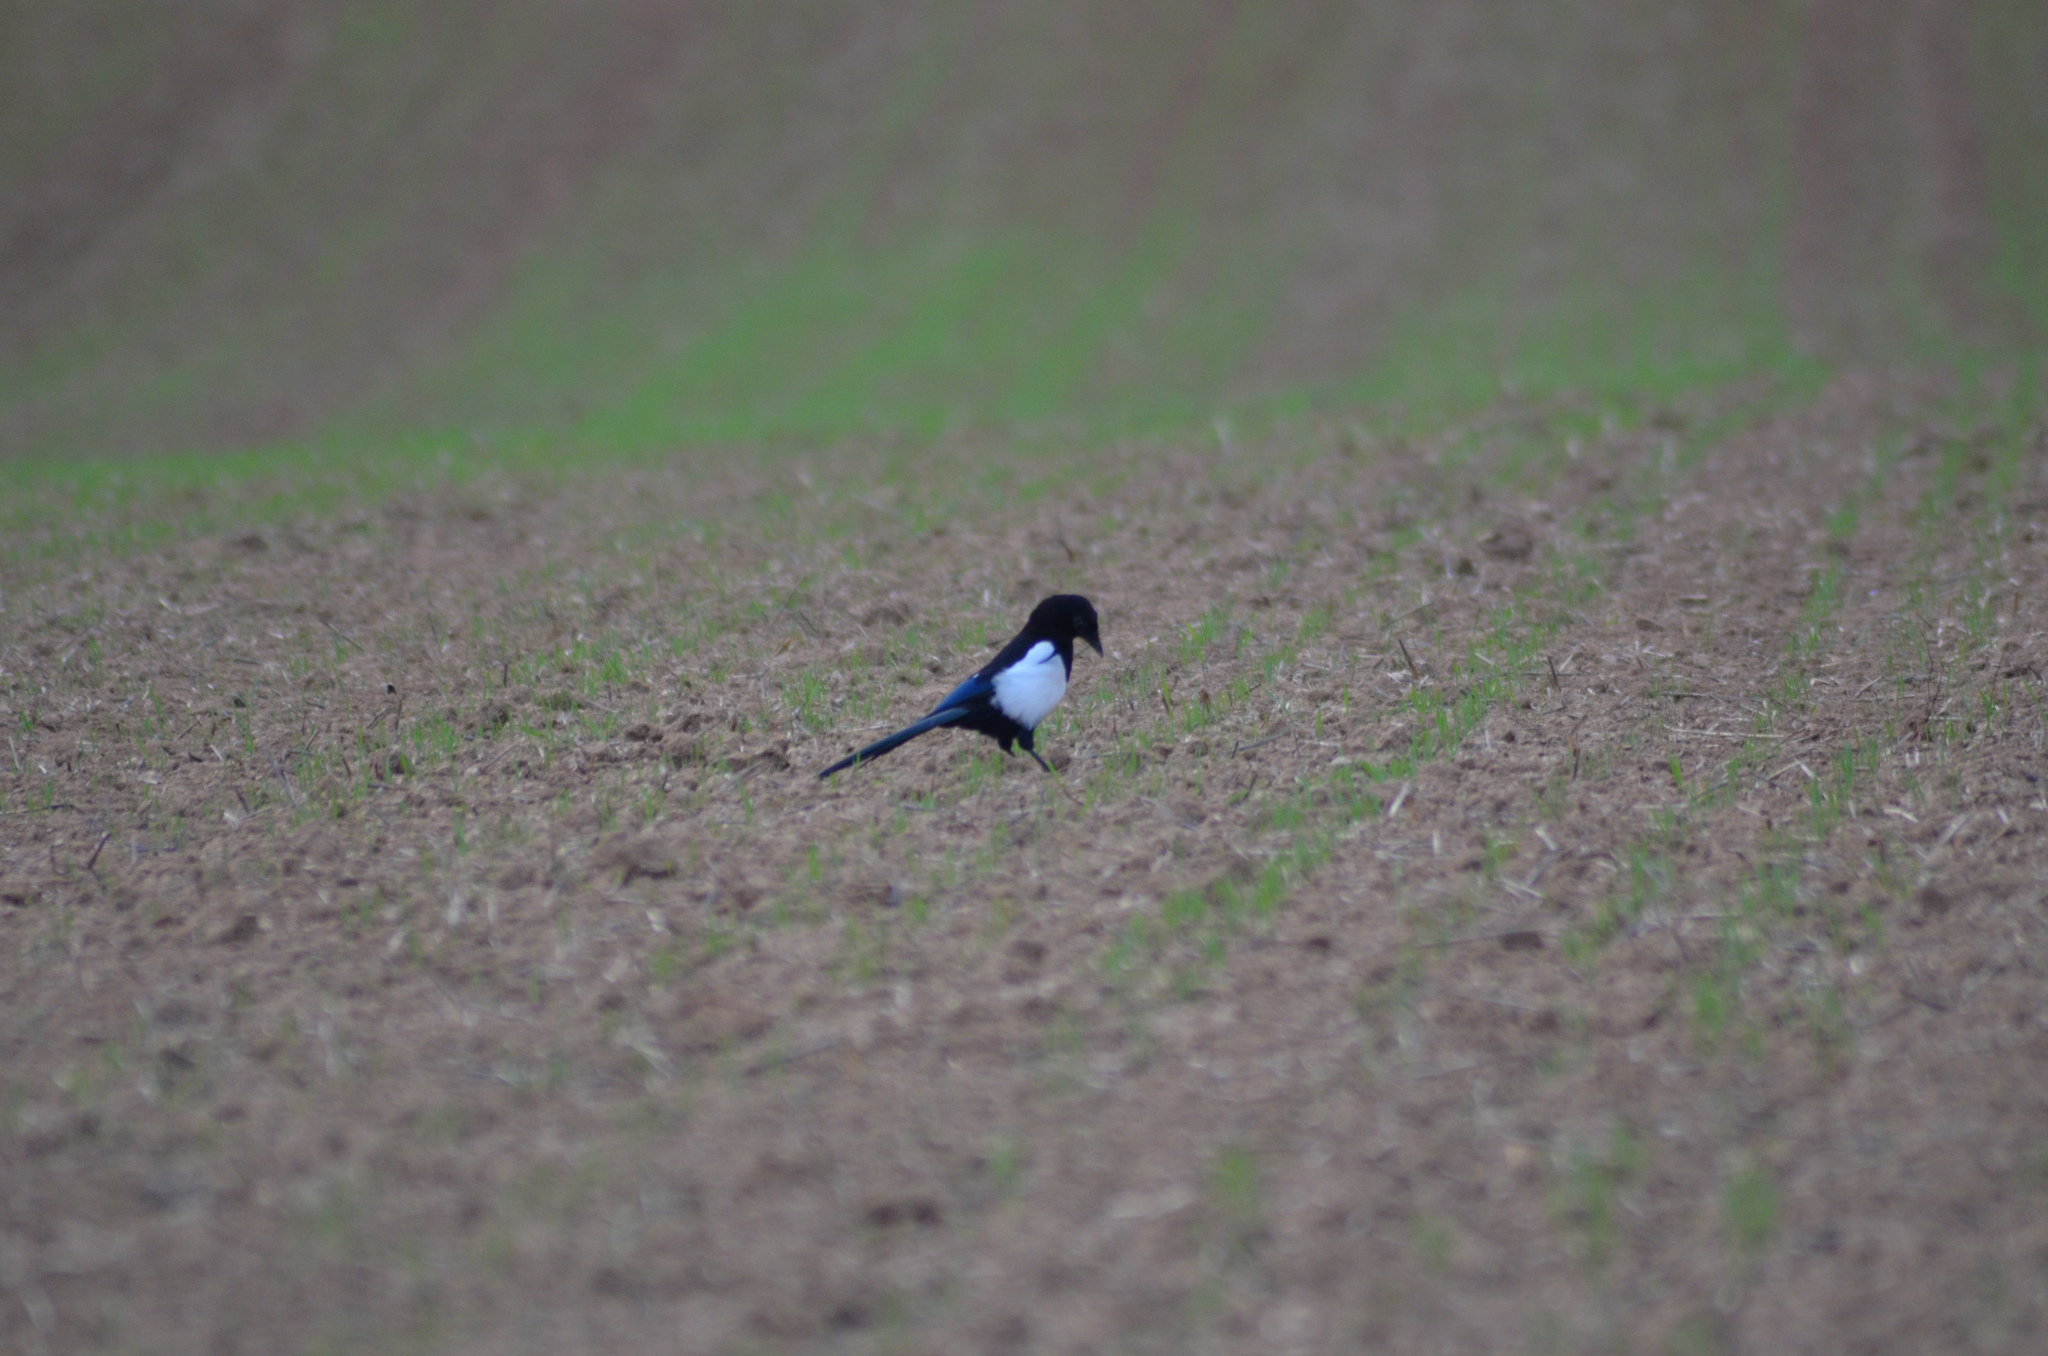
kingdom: Animalia
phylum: Chordata
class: Aves
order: Passeriformes
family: Corvidae
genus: Pica
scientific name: Pica pica
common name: Eurasian magpie
